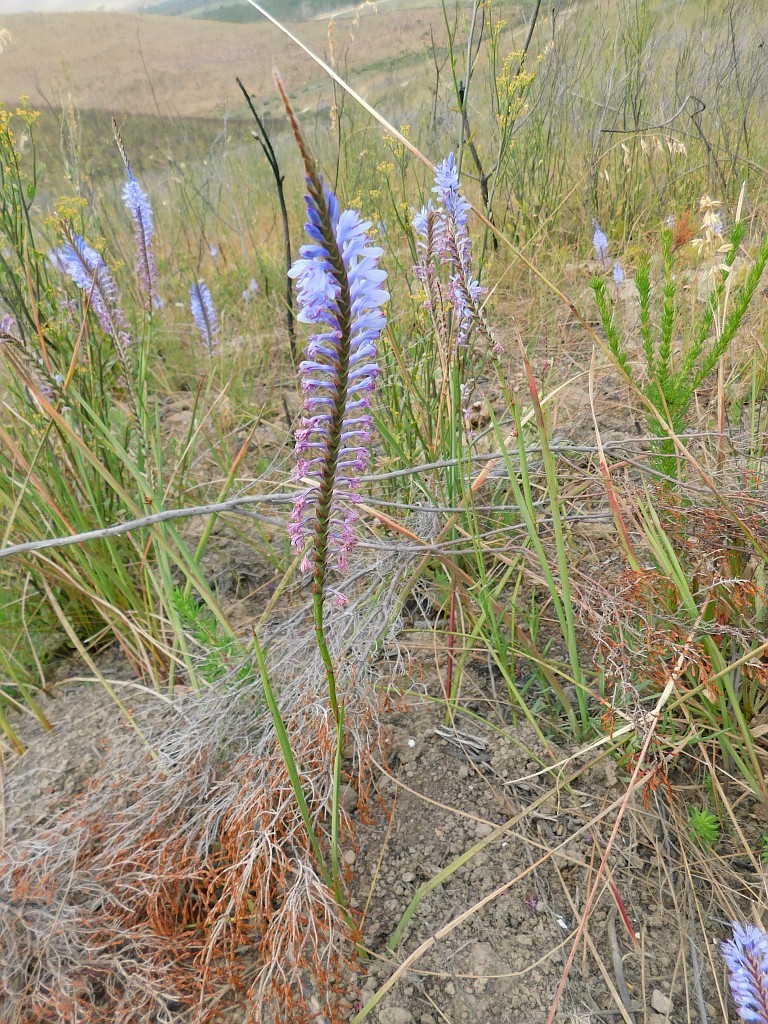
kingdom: Plantae
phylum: Tracheophyta
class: Liliopsida
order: Asparagales
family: Iridaceae
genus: Micranthus
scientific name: Micranthus alopecuroides
